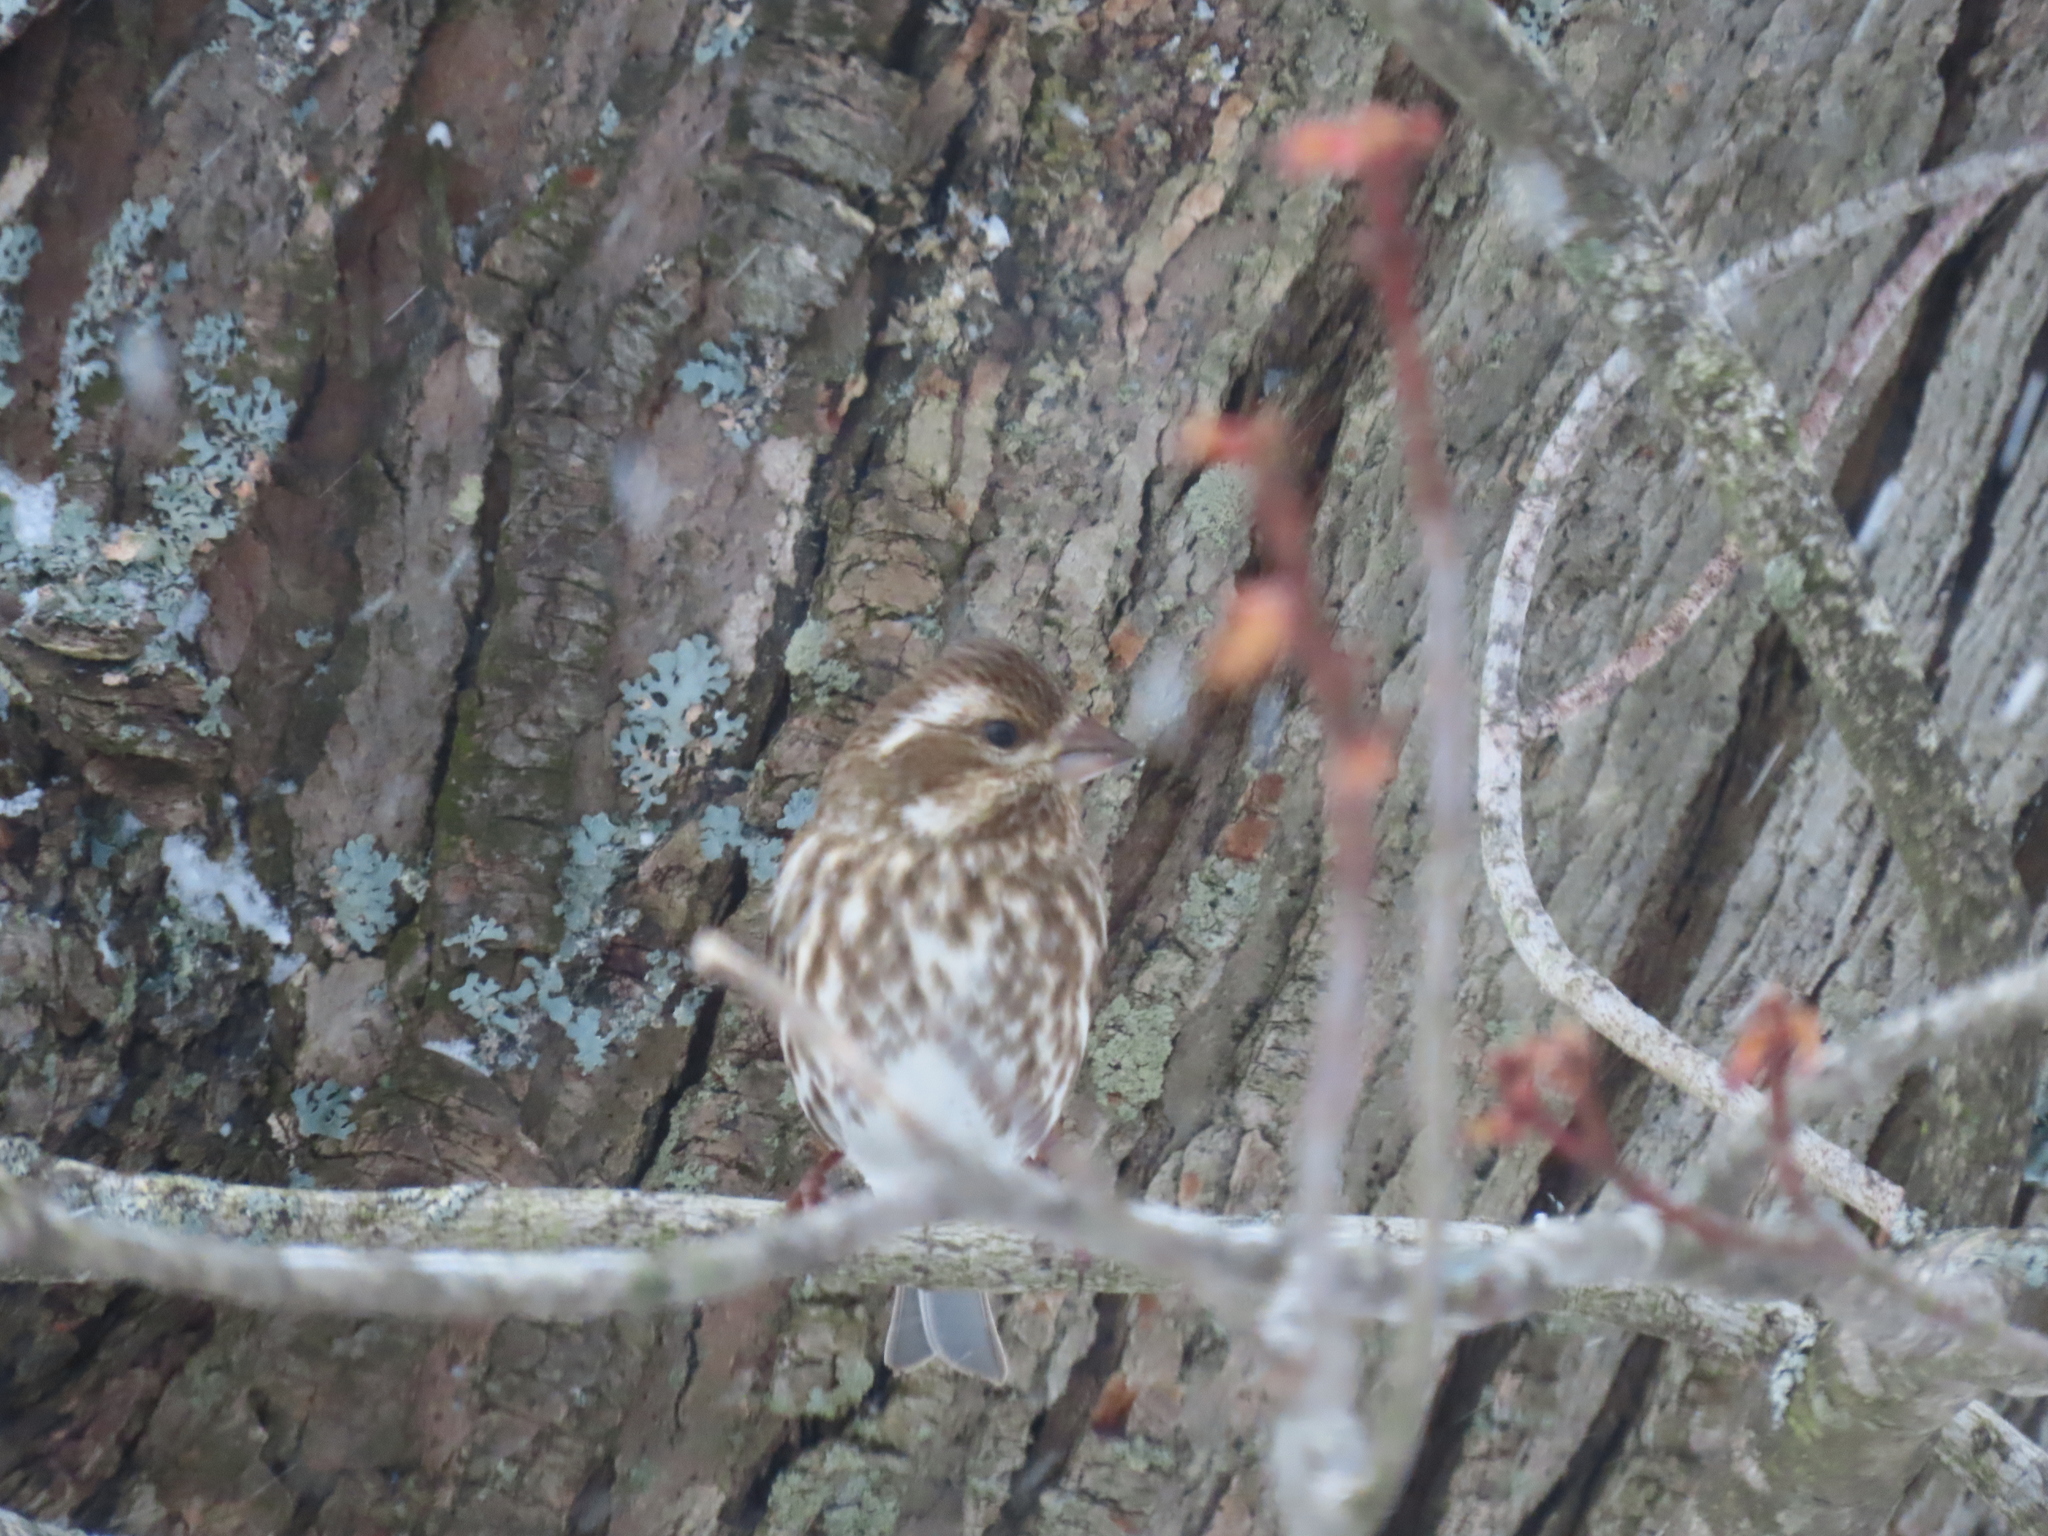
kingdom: Animalia
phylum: Chordata
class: Aves
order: Passeriformes
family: Fringillidae
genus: Haemorhous
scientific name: Haemorhous purpureus
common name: Purple finch
